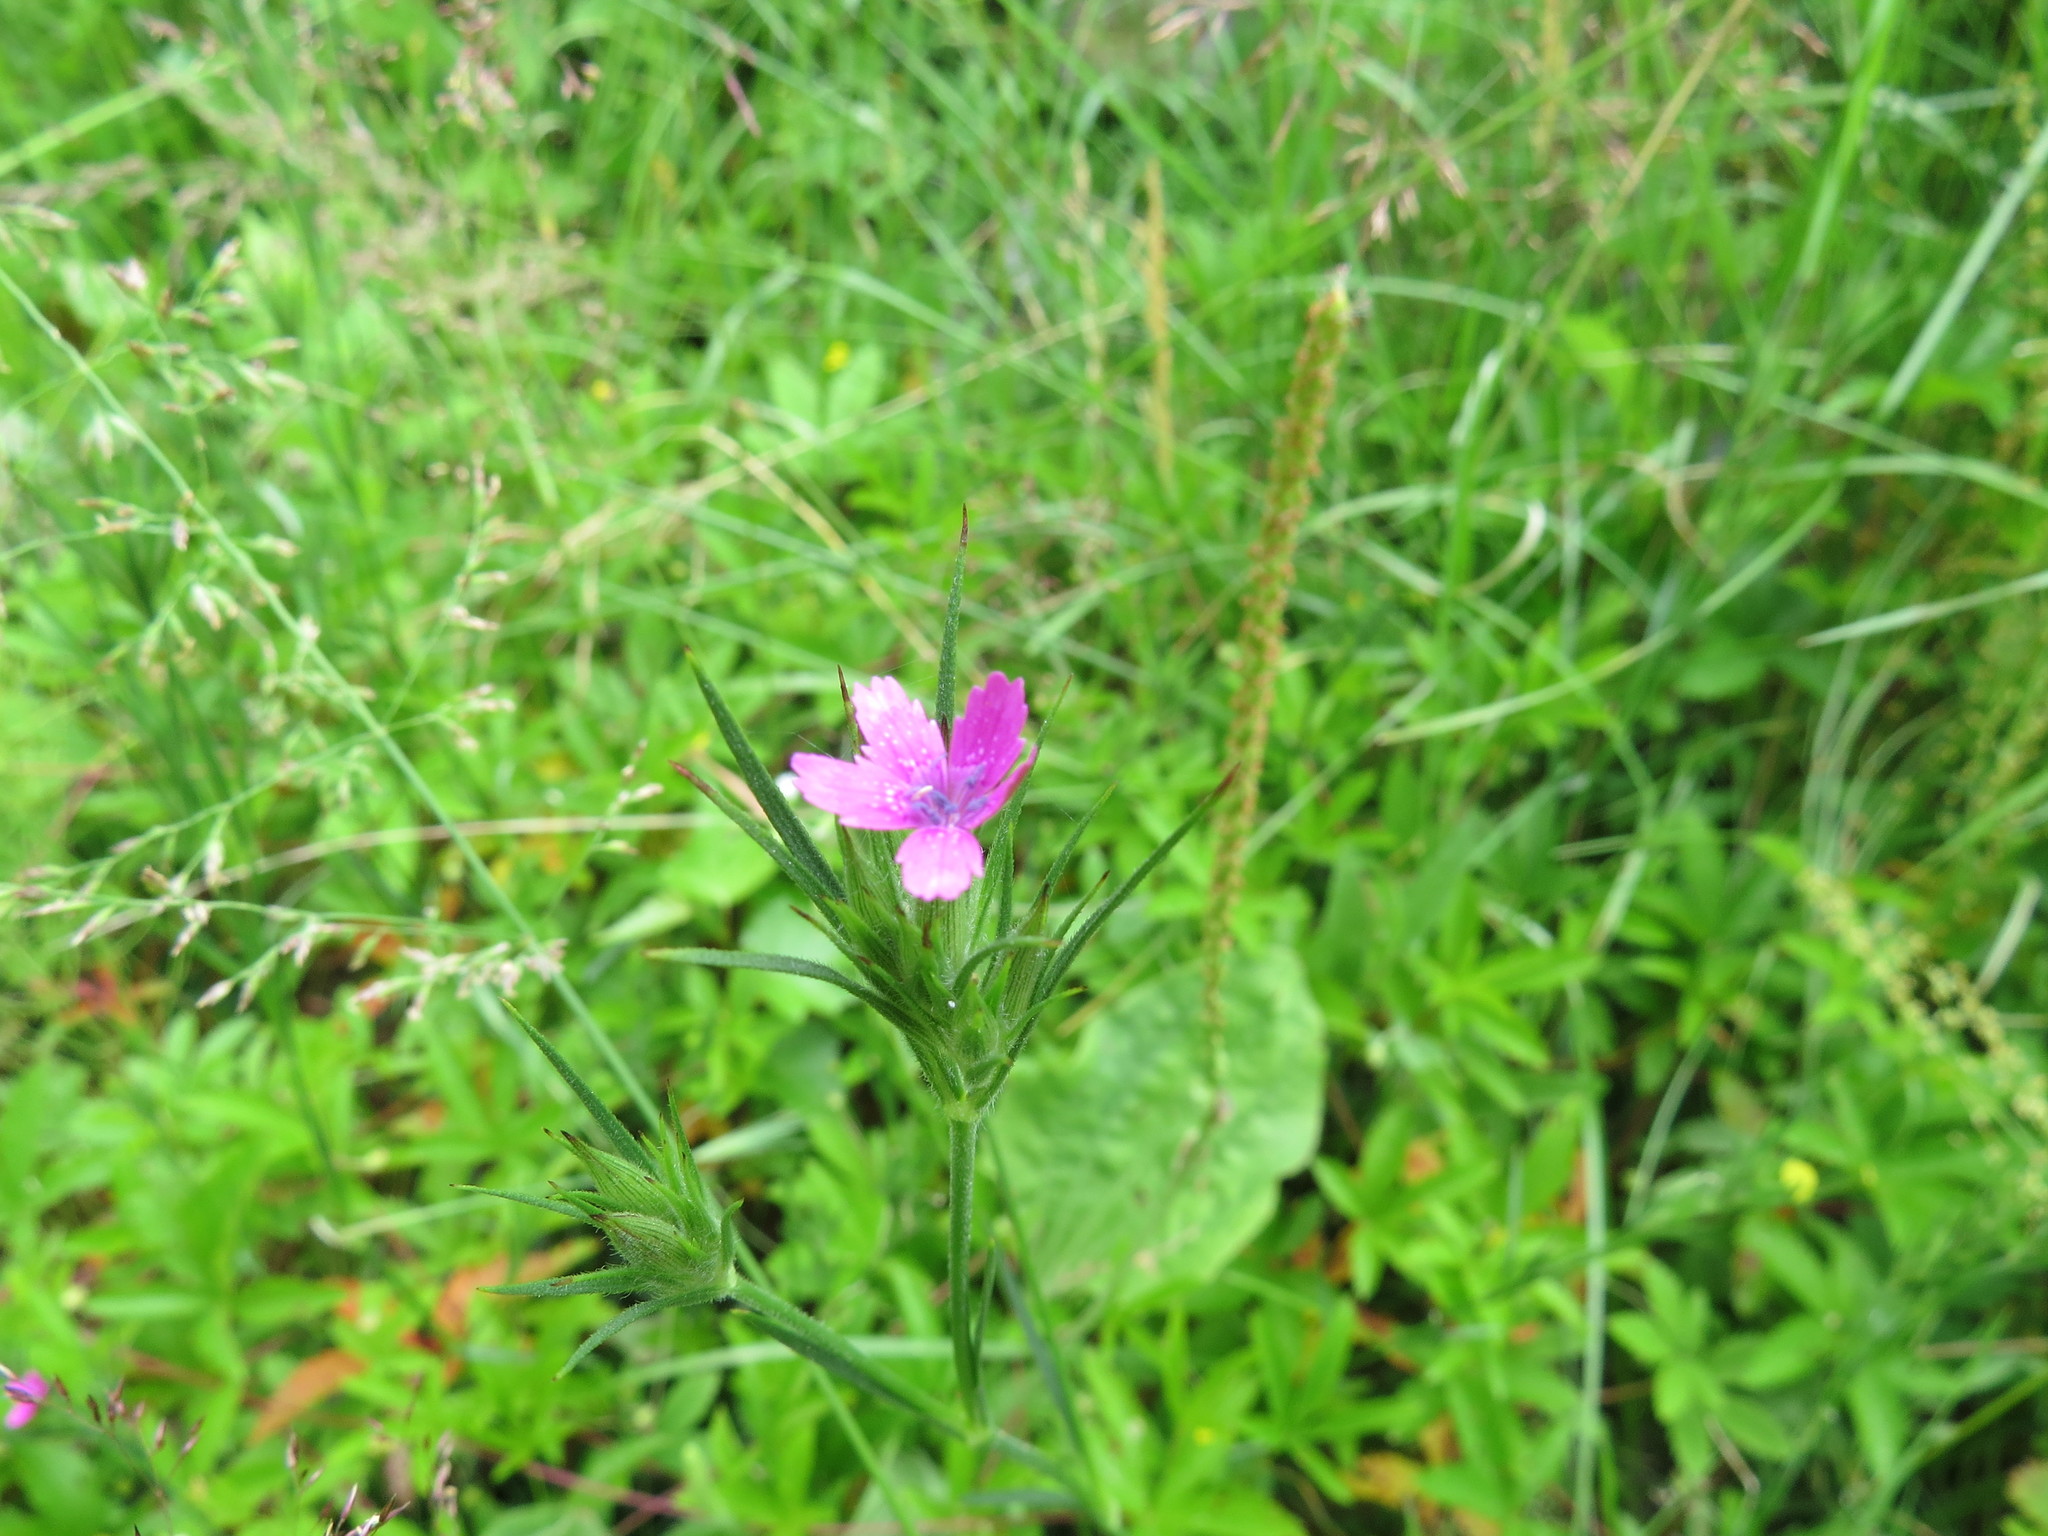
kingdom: Plantae
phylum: Tracheophyta
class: Magnoliopsida
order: Caryophyllales
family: Caryophyllaceae
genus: Dianthus
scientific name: Dianthus armeria
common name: Deptford pink
